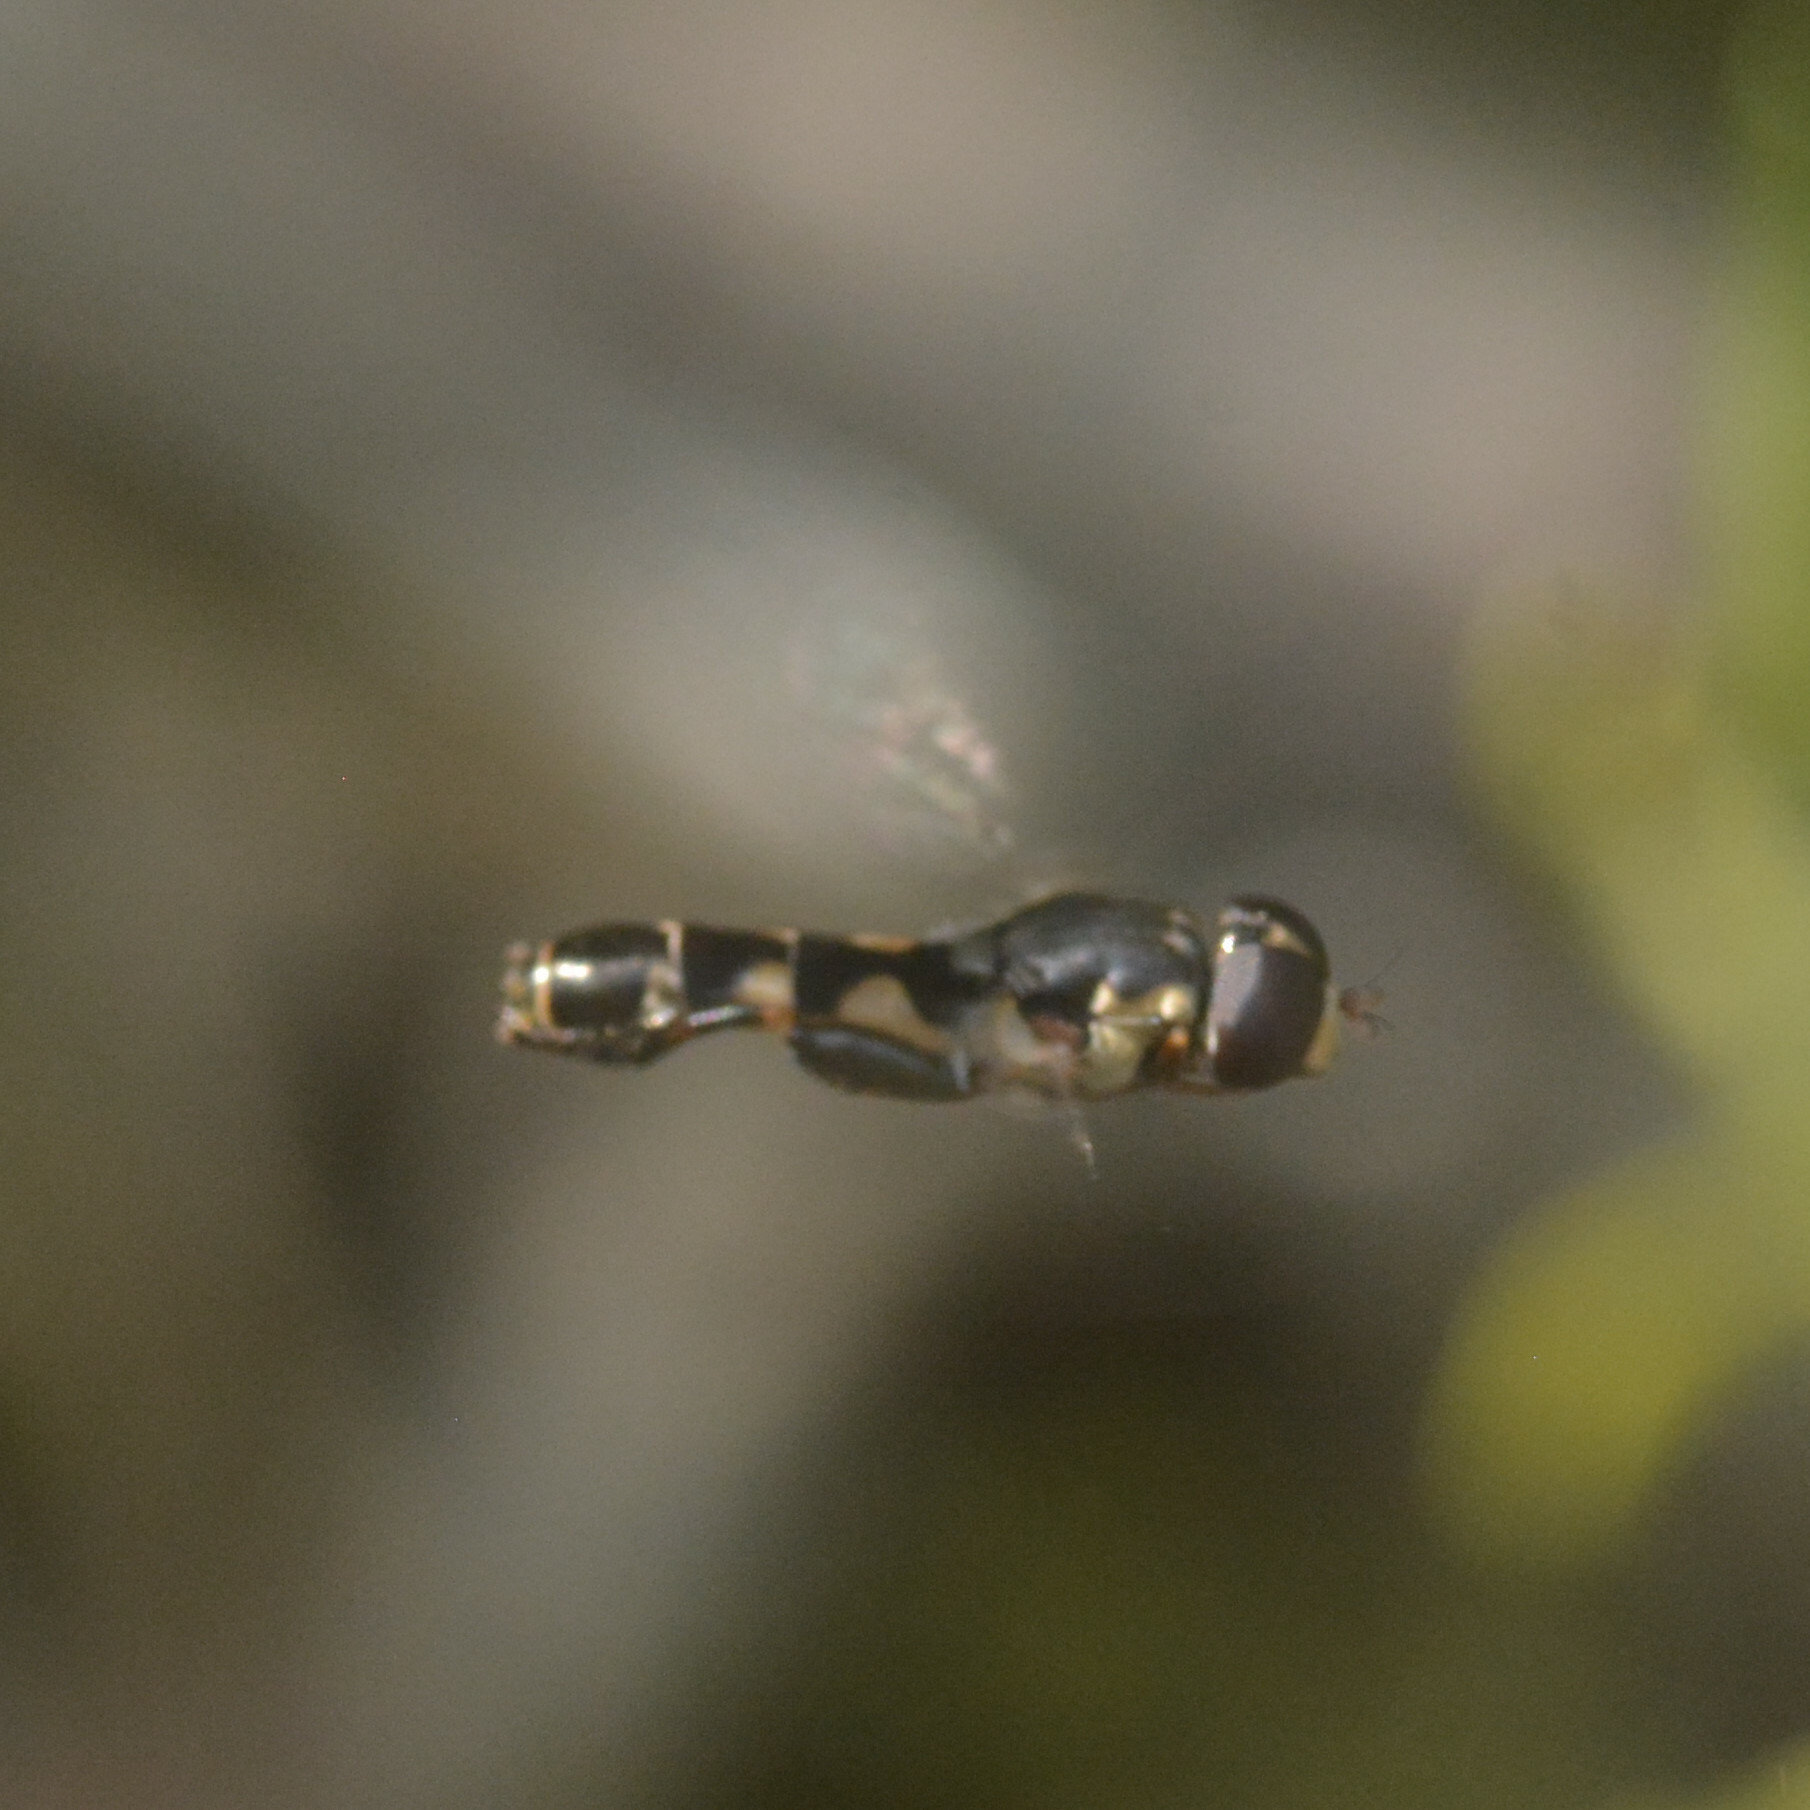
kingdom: Animalia
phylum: Arthropoda
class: Insecta
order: Diptera
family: Syrphidae
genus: Syritta
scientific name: Syritta pipiens
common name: Hover fly
